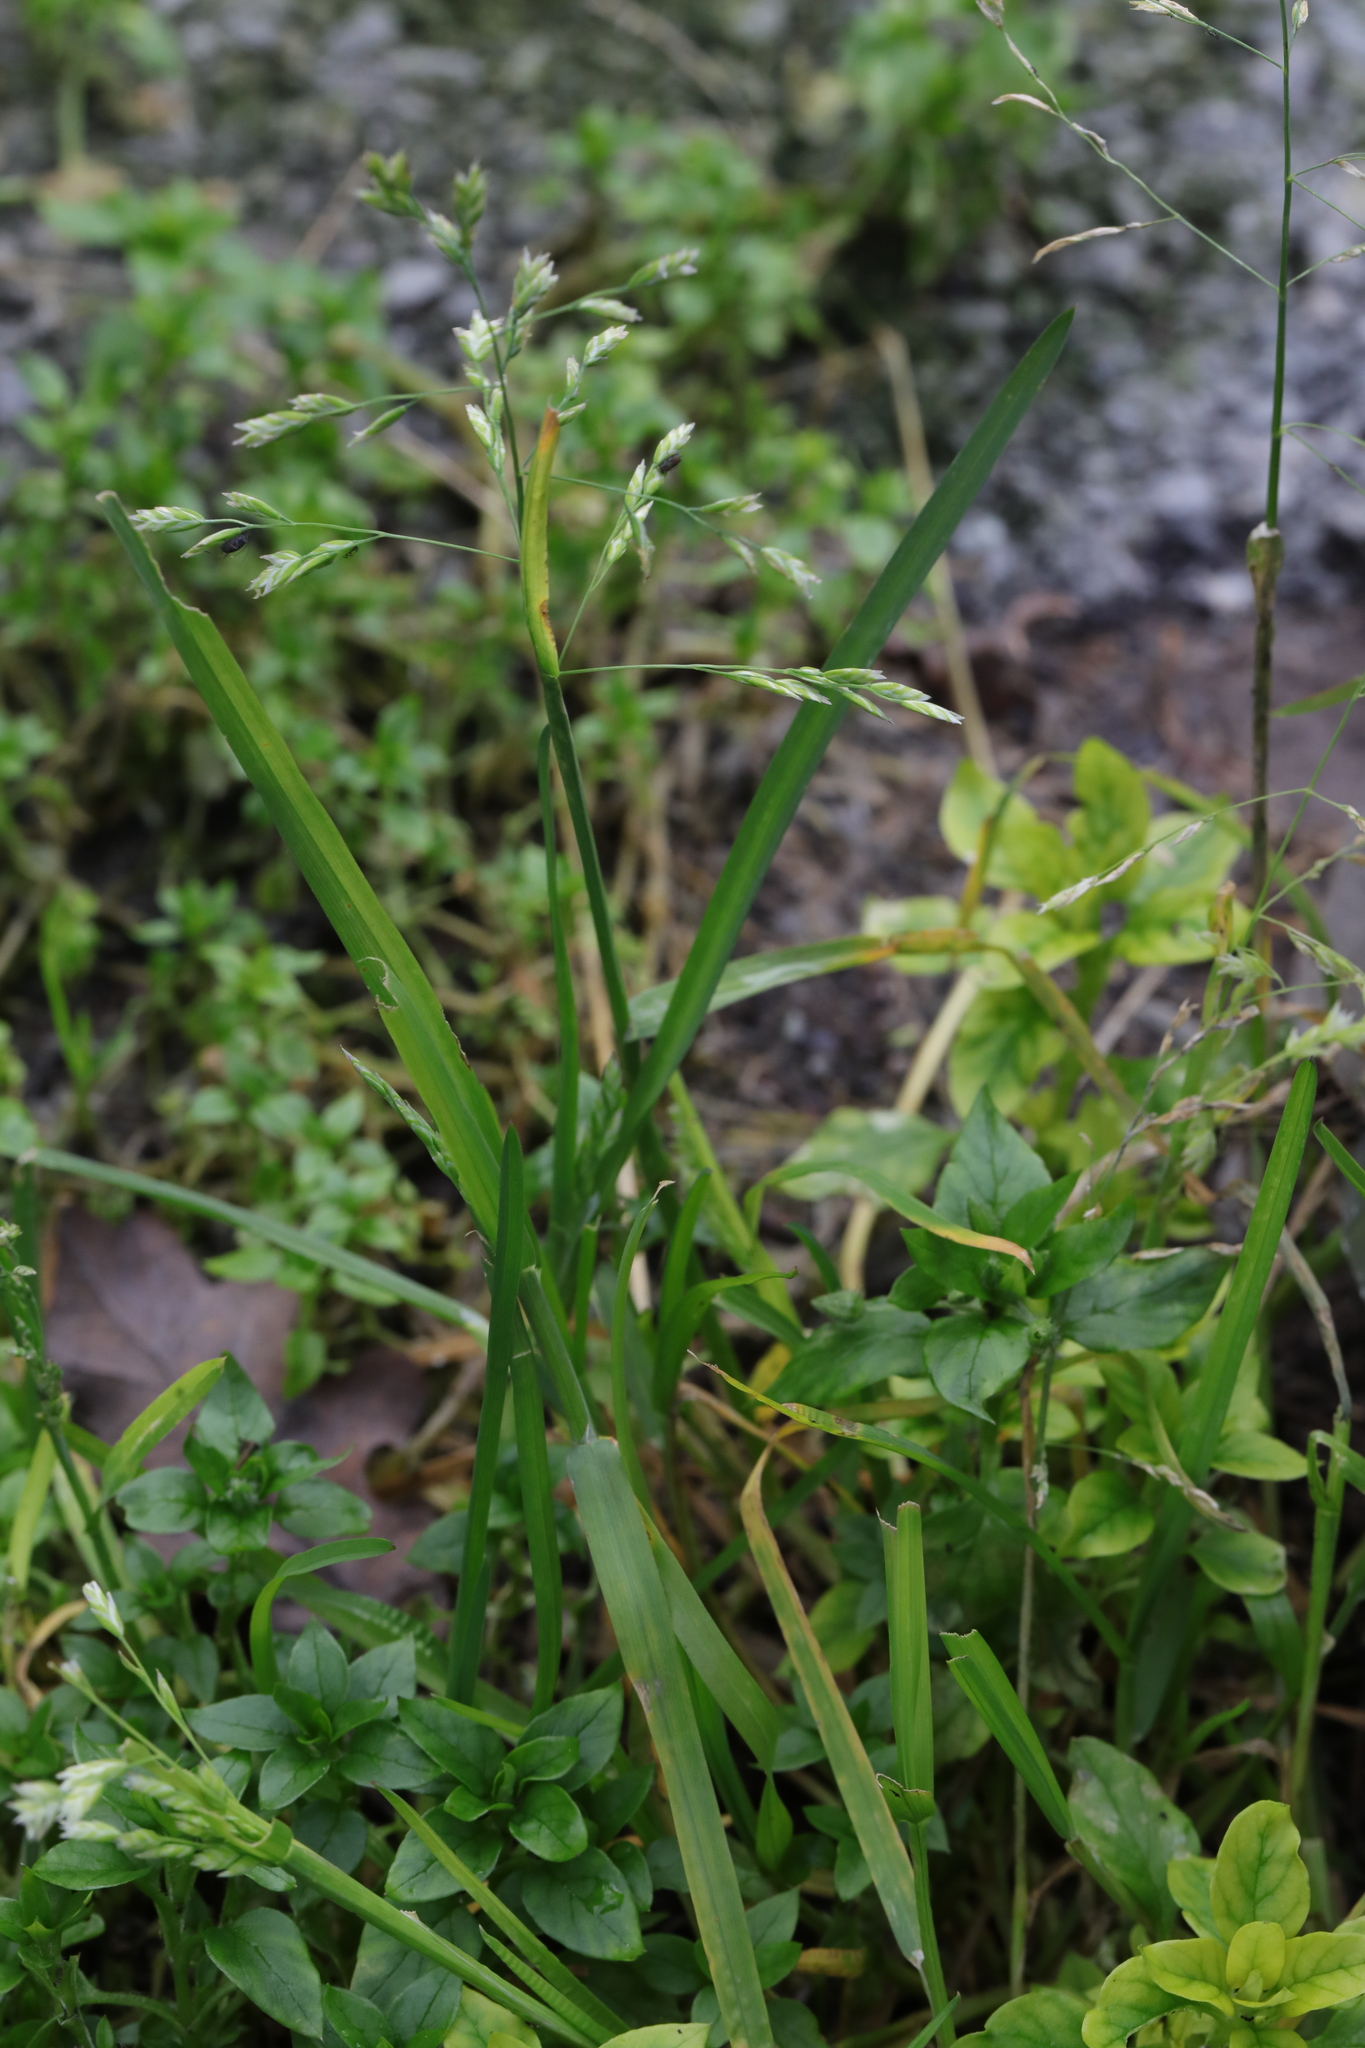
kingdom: Plantae
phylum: Tracheophyta
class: Liliopsida
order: Poales
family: Poaceae
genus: Poa
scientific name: Poa annua
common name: Annual bluegrass
